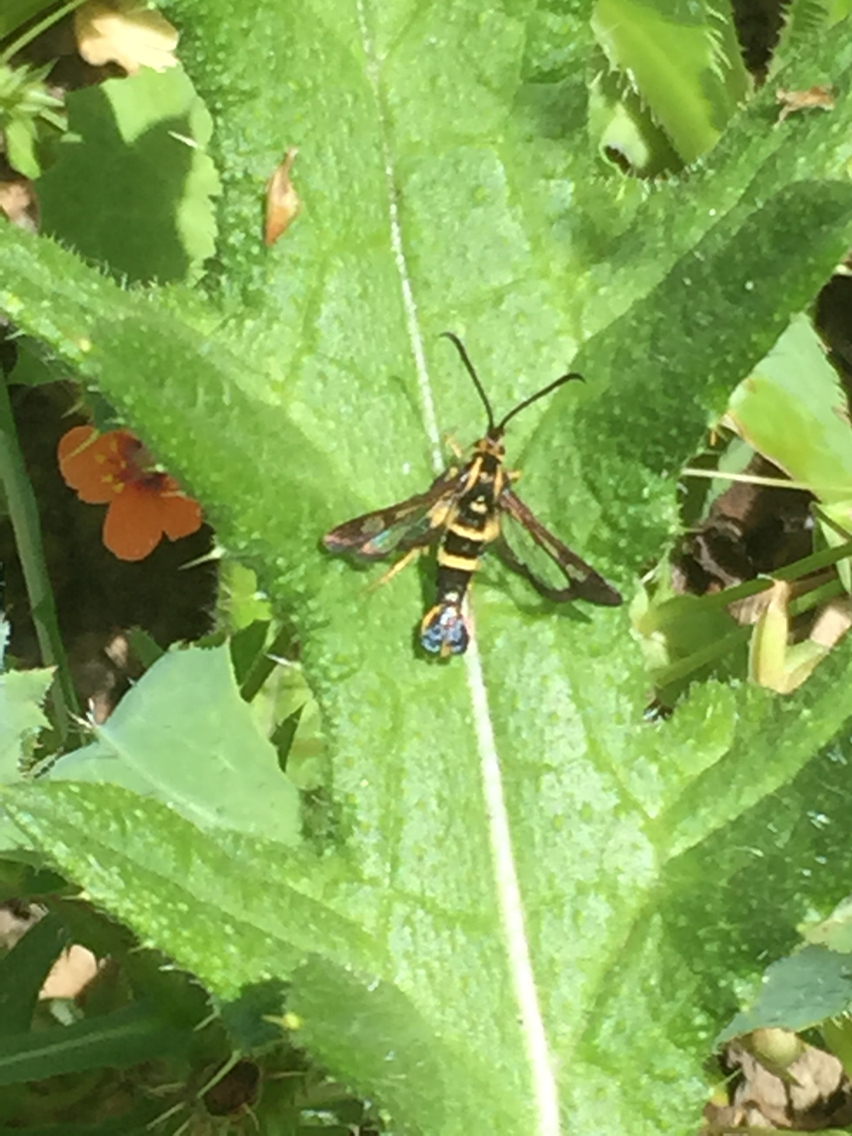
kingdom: Animalia
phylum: Arthropoda
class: Insecta
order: Lepidoptera
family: Sesiidae
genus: Synanthedon
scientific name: Synanthedon bibionipennis
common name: Strawberry crown moth
